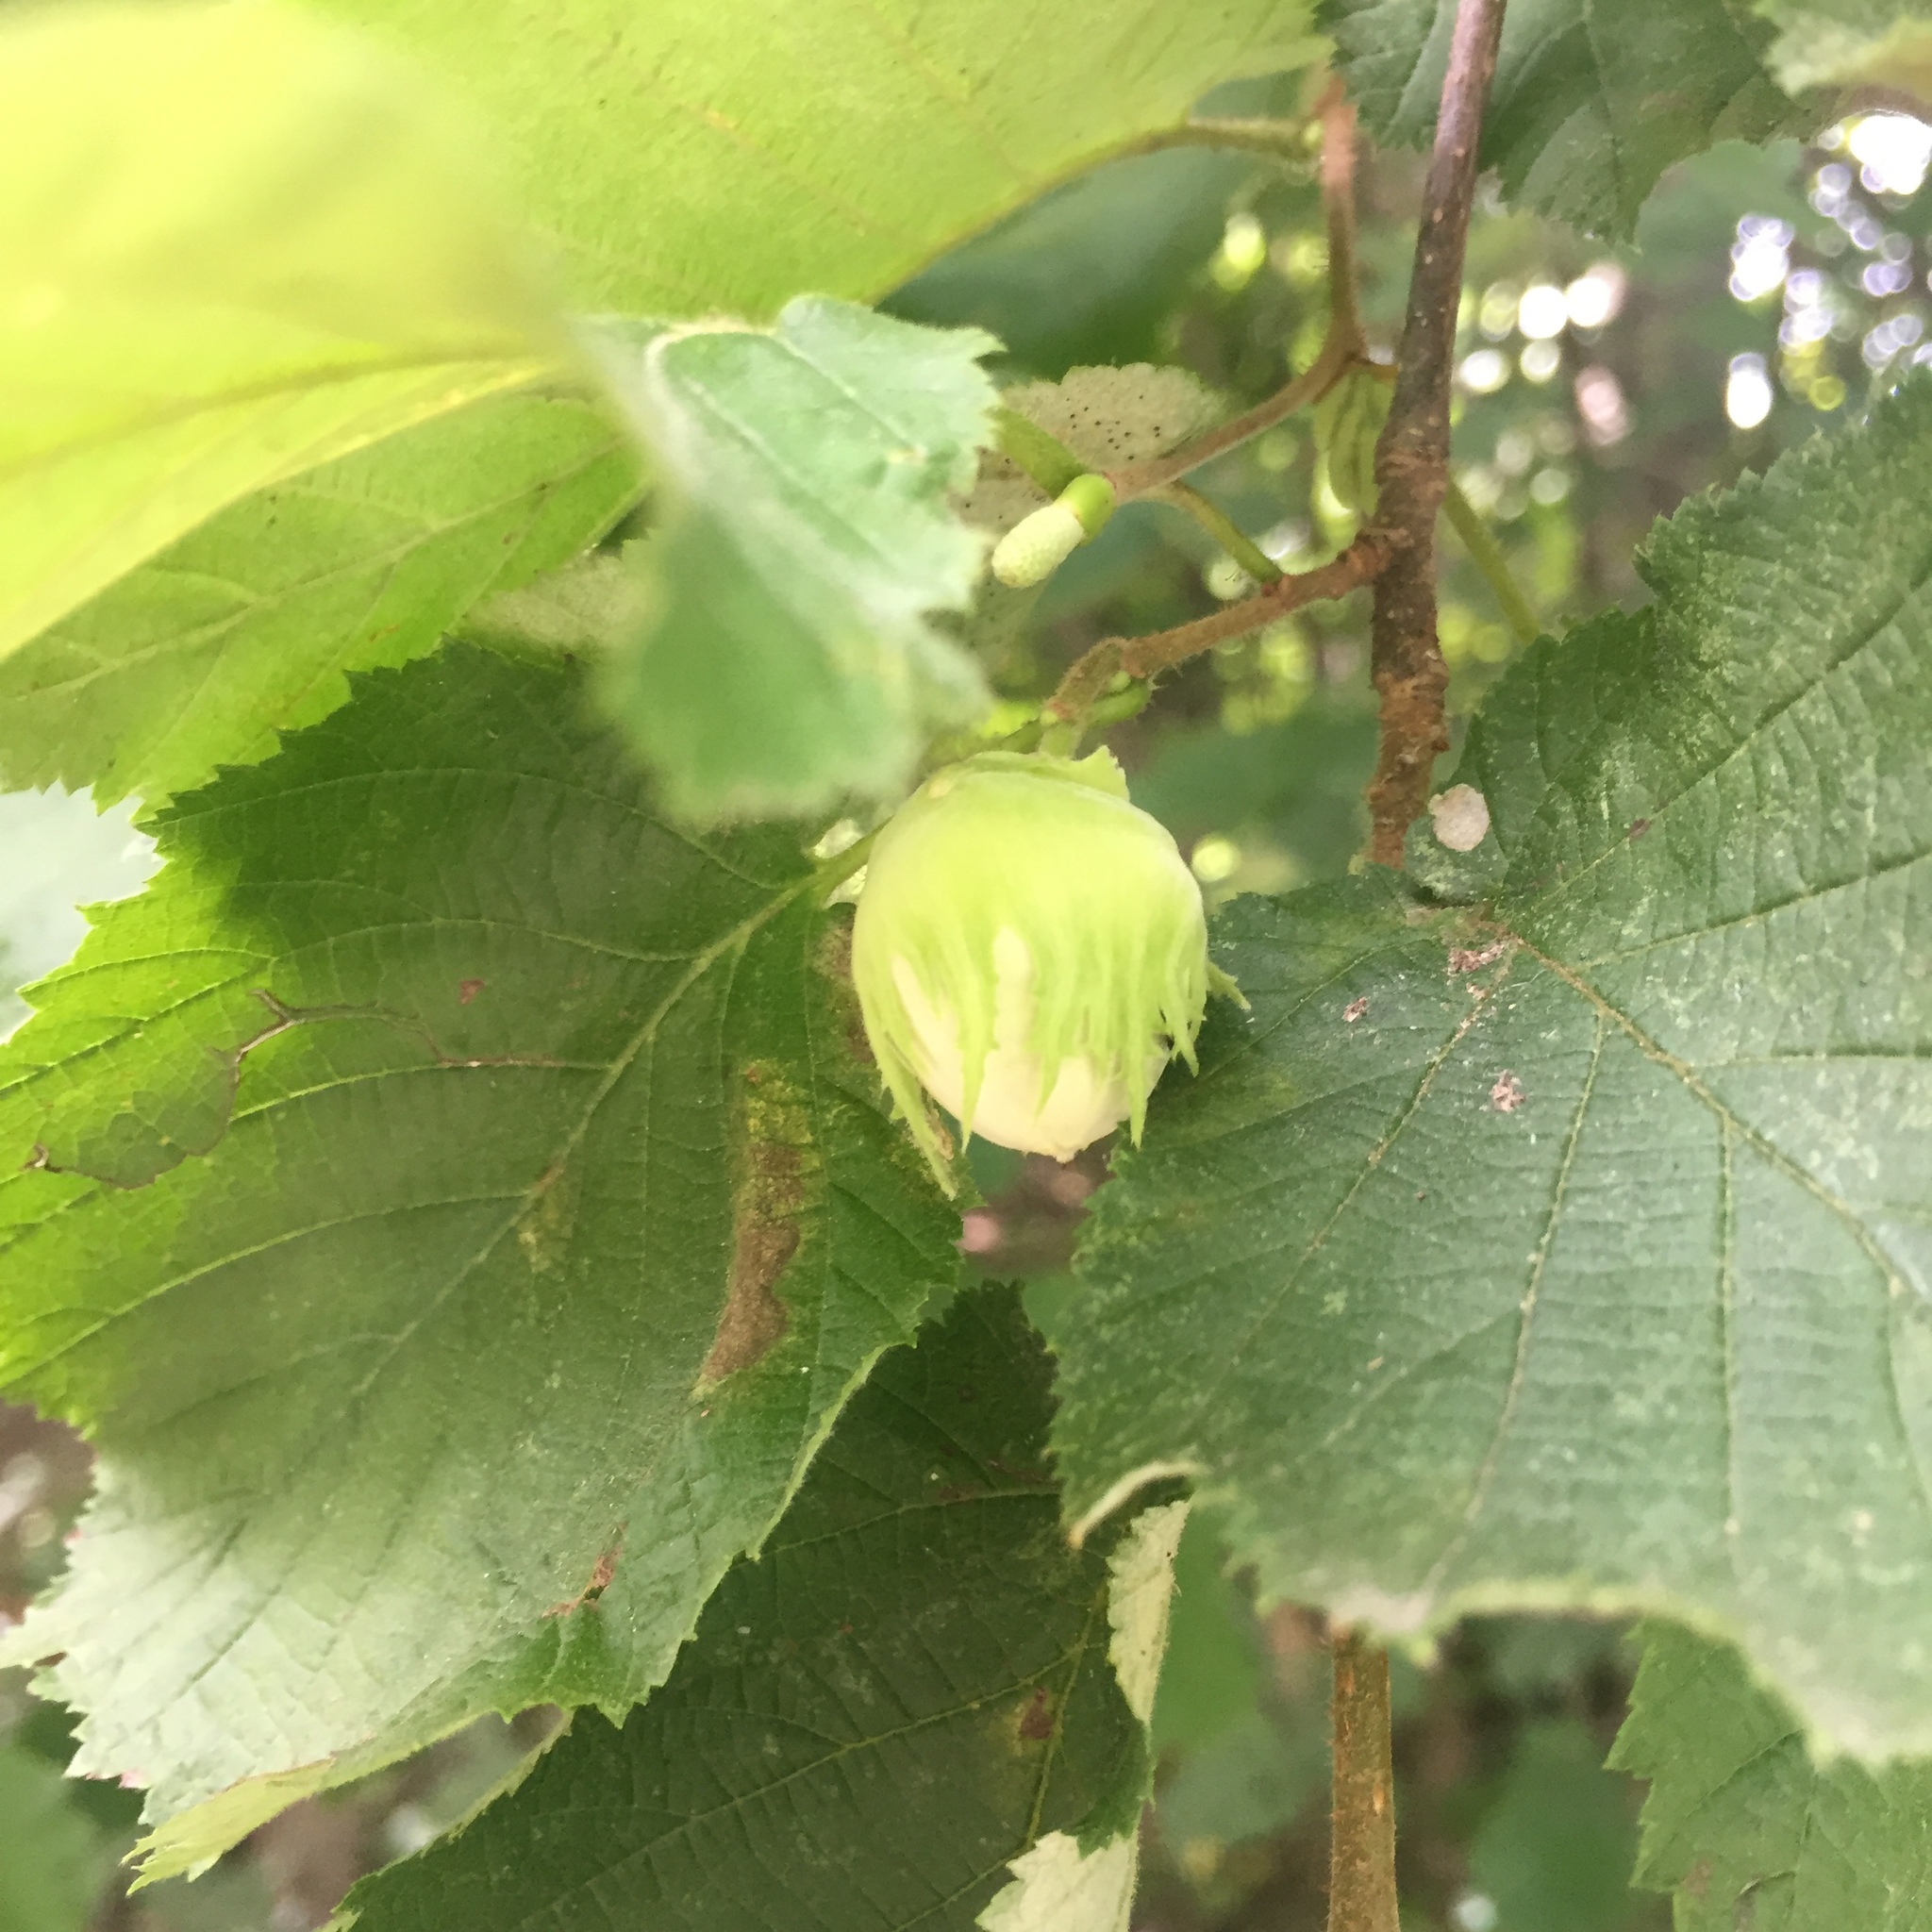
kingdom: Plantae
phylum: Tracheophyta
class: Magnoliopsida
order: Fagales
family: Betulaceae
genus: Corylus
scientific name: Corylus avellana
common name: European hazel
